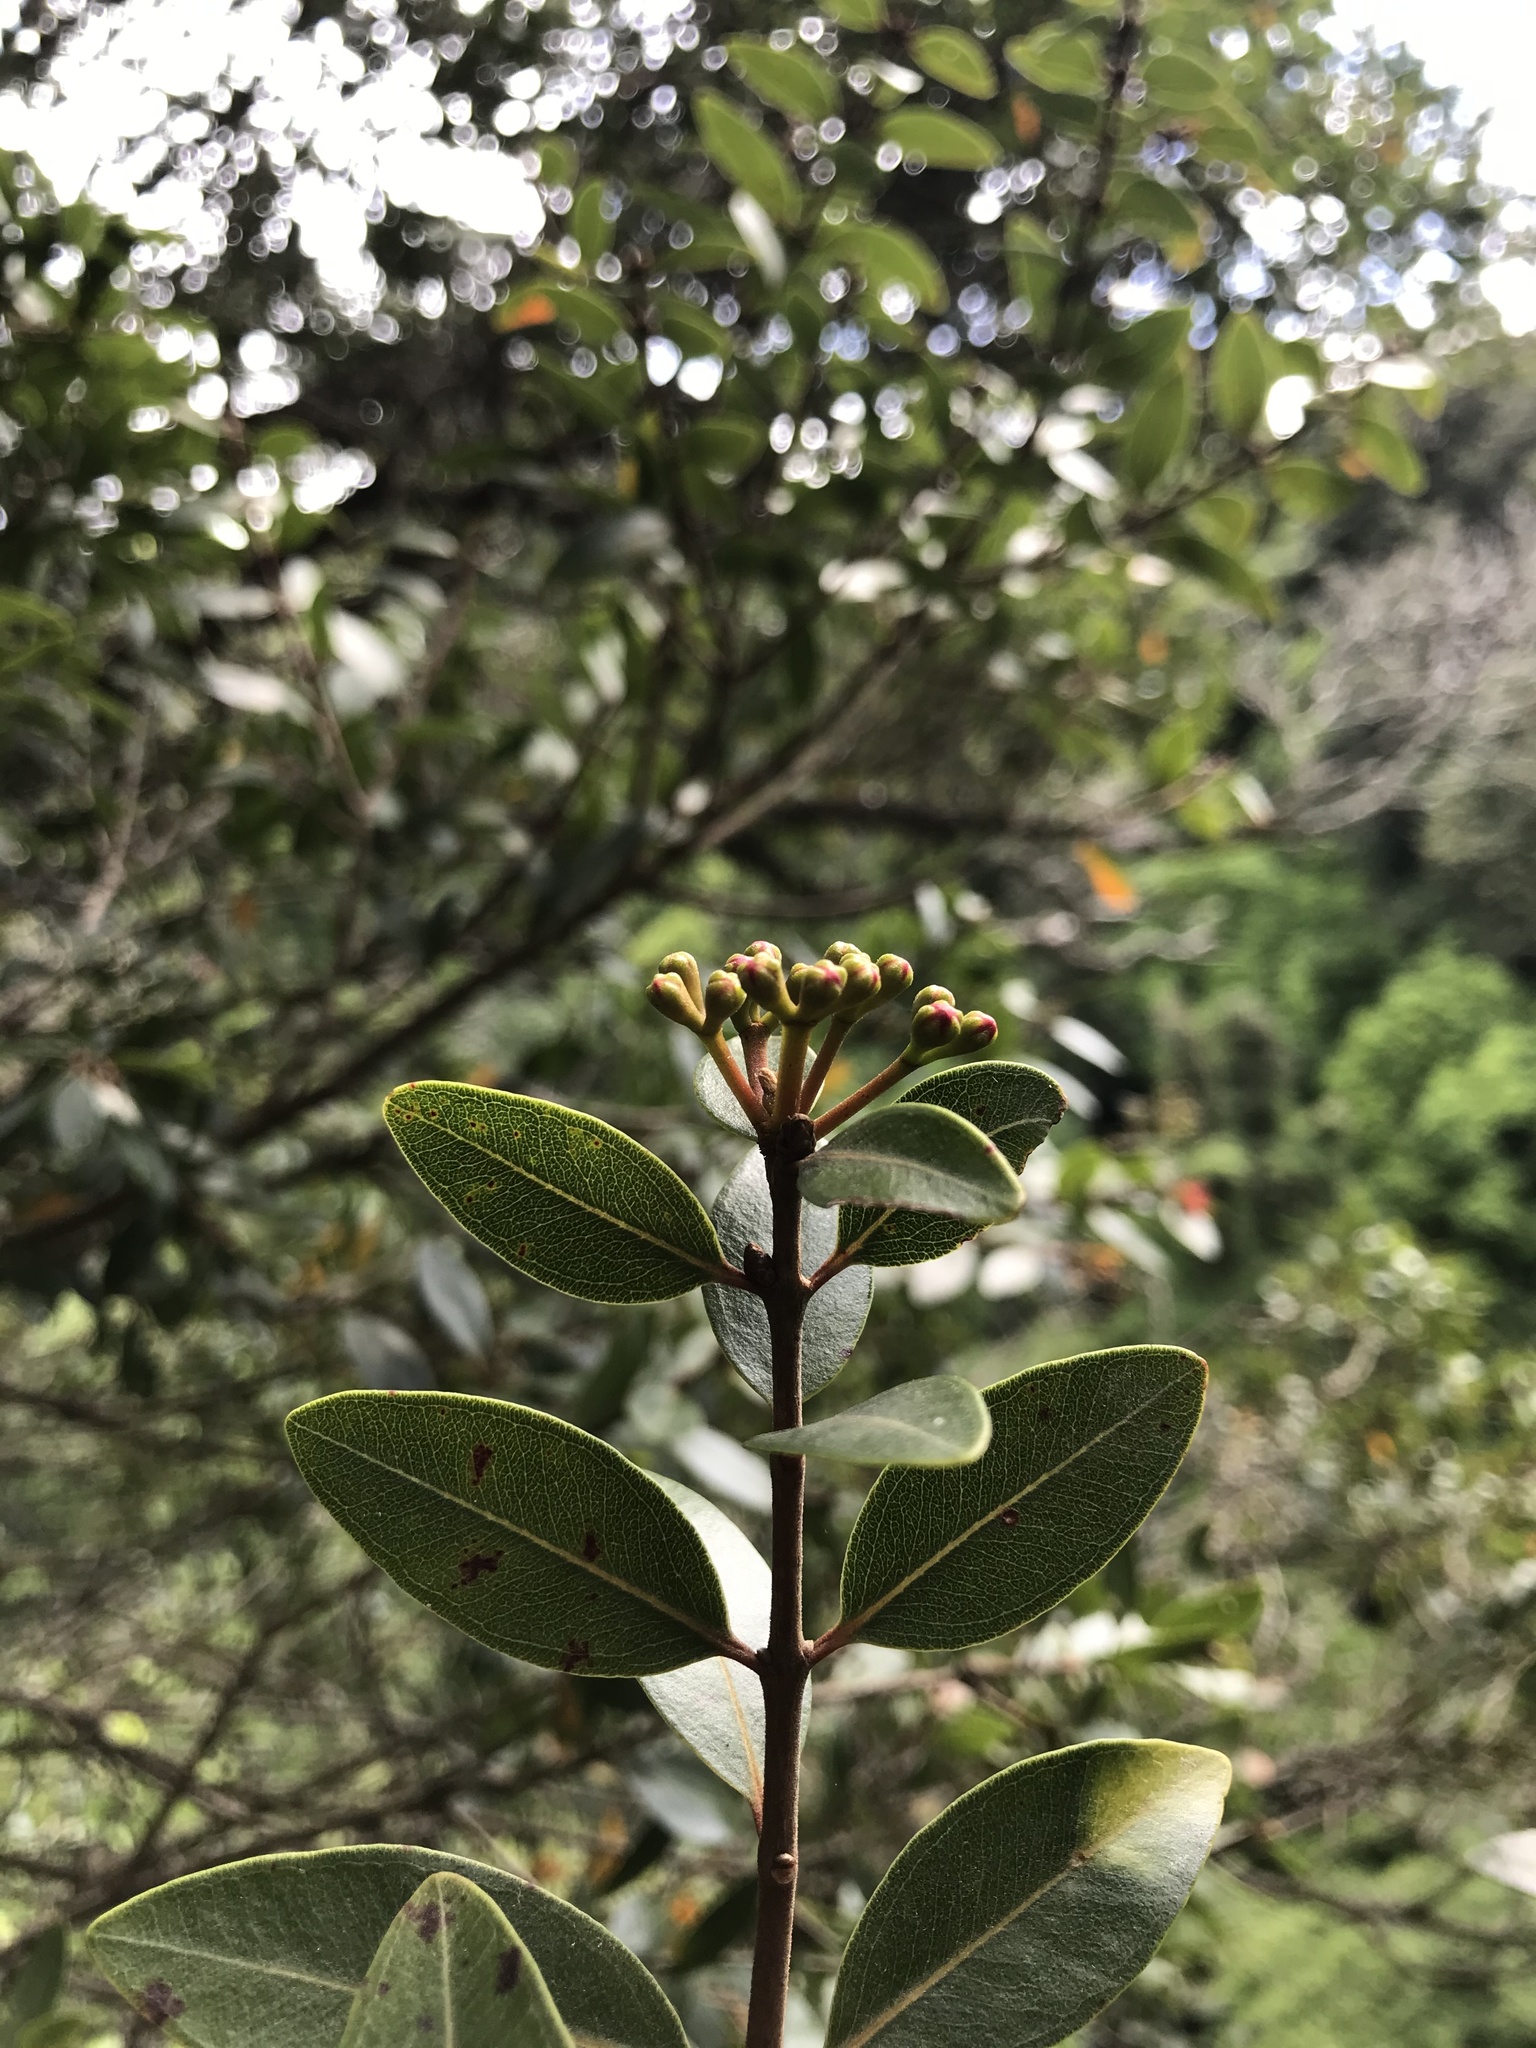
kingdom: Plantae
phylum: Tracheophyta
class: Magnoliopsida
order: Myrtales
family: Myrtaceae
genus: Metrosideros
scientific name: Metrosideros robusta
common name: Northern rata
